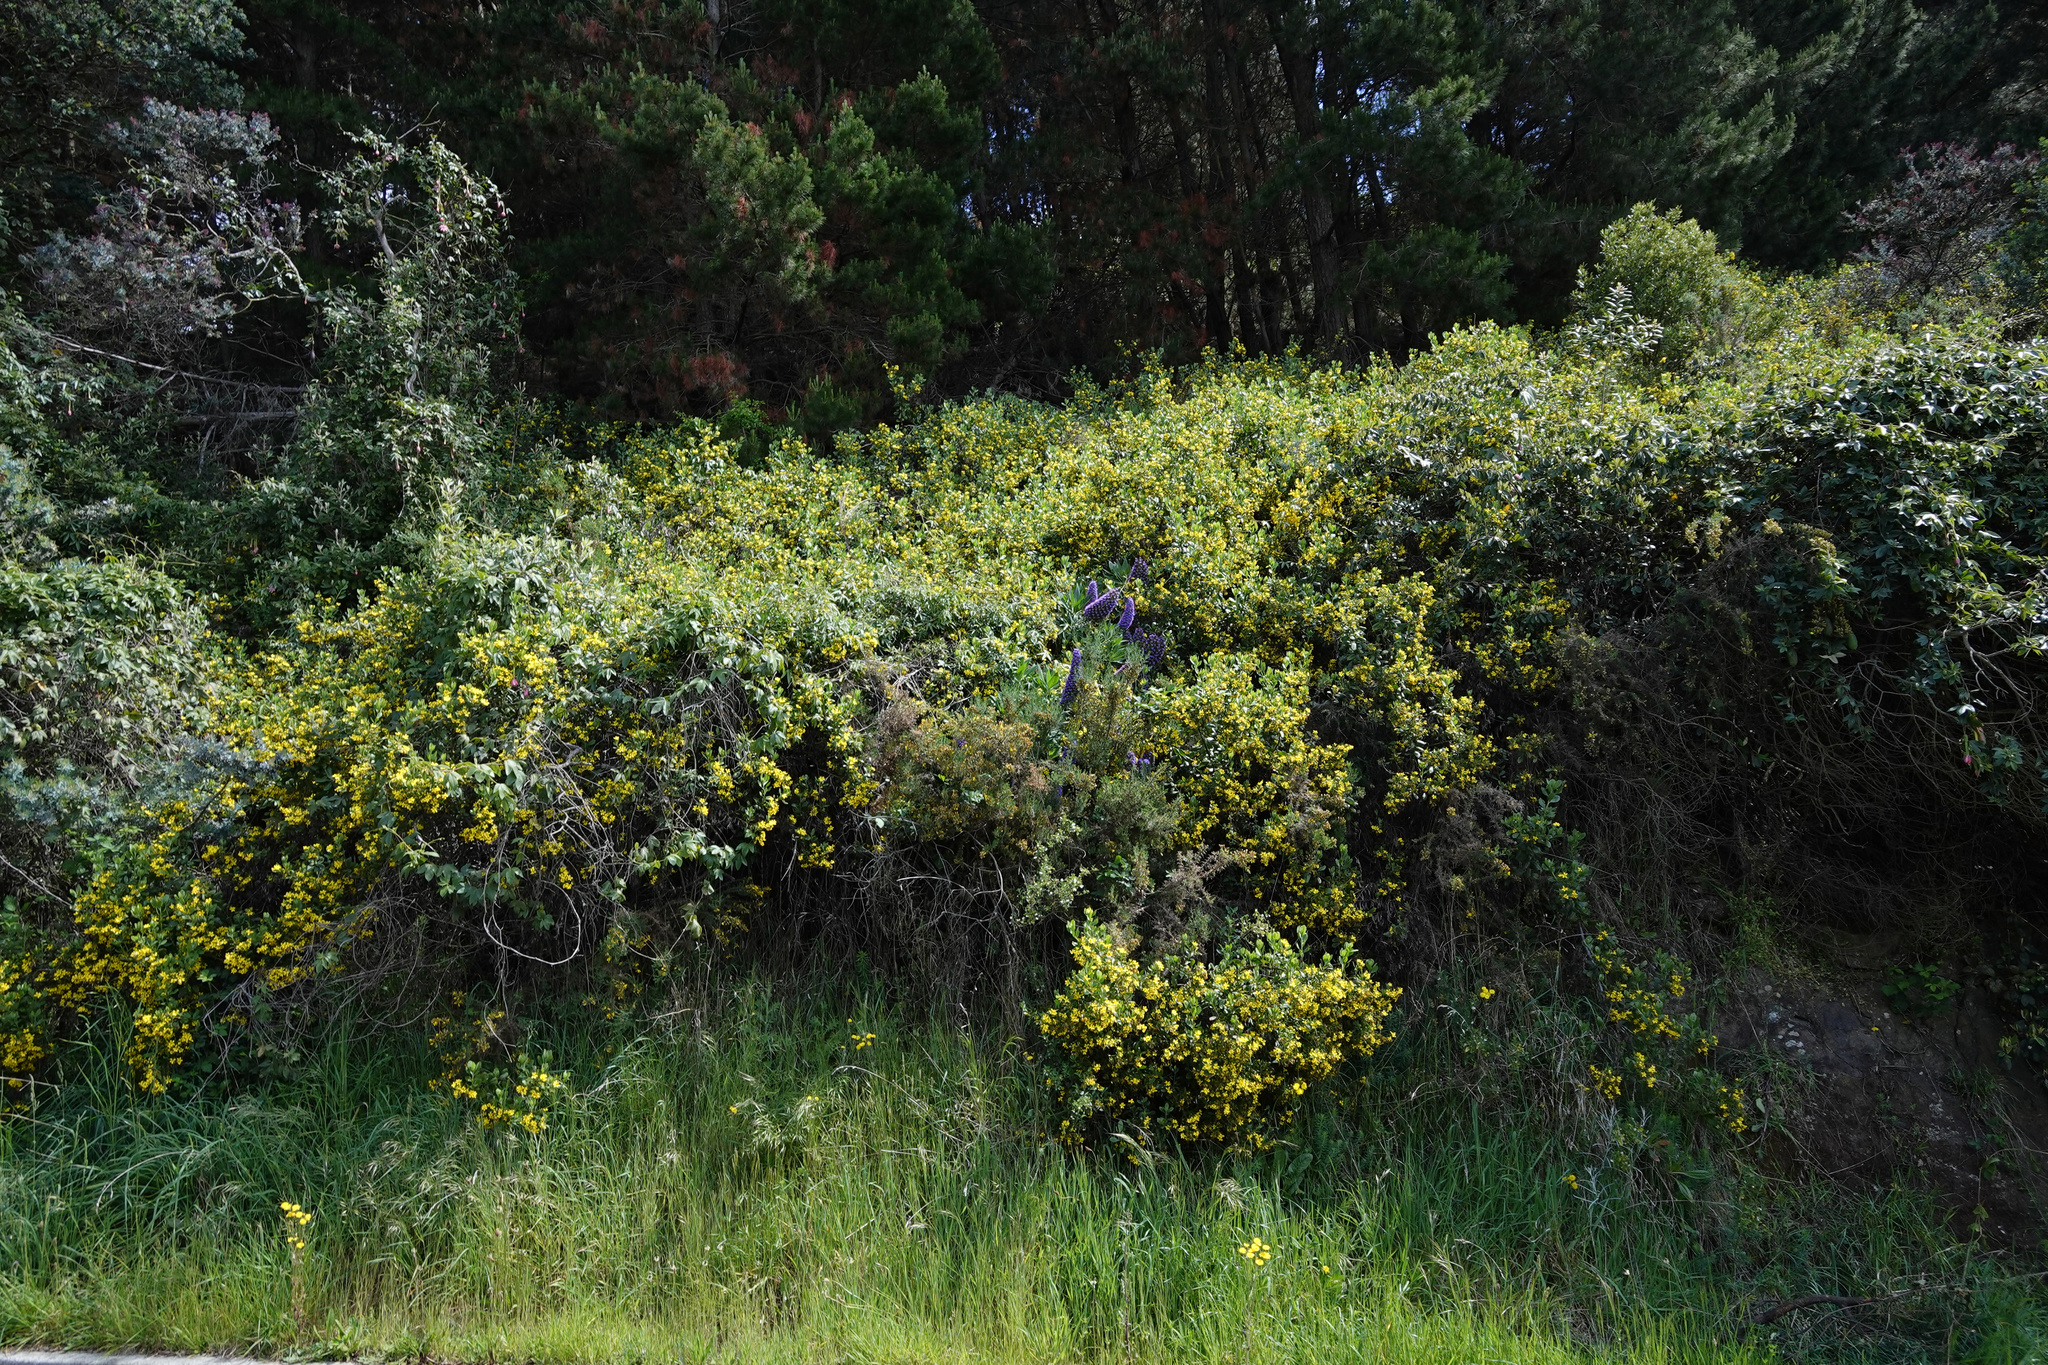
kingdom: Plantae
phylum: Tracheophyta
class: Magnoliopsida
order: Asterales
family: Asteraceae
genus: Osteospermum
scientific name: Osteospermum moniliferum
